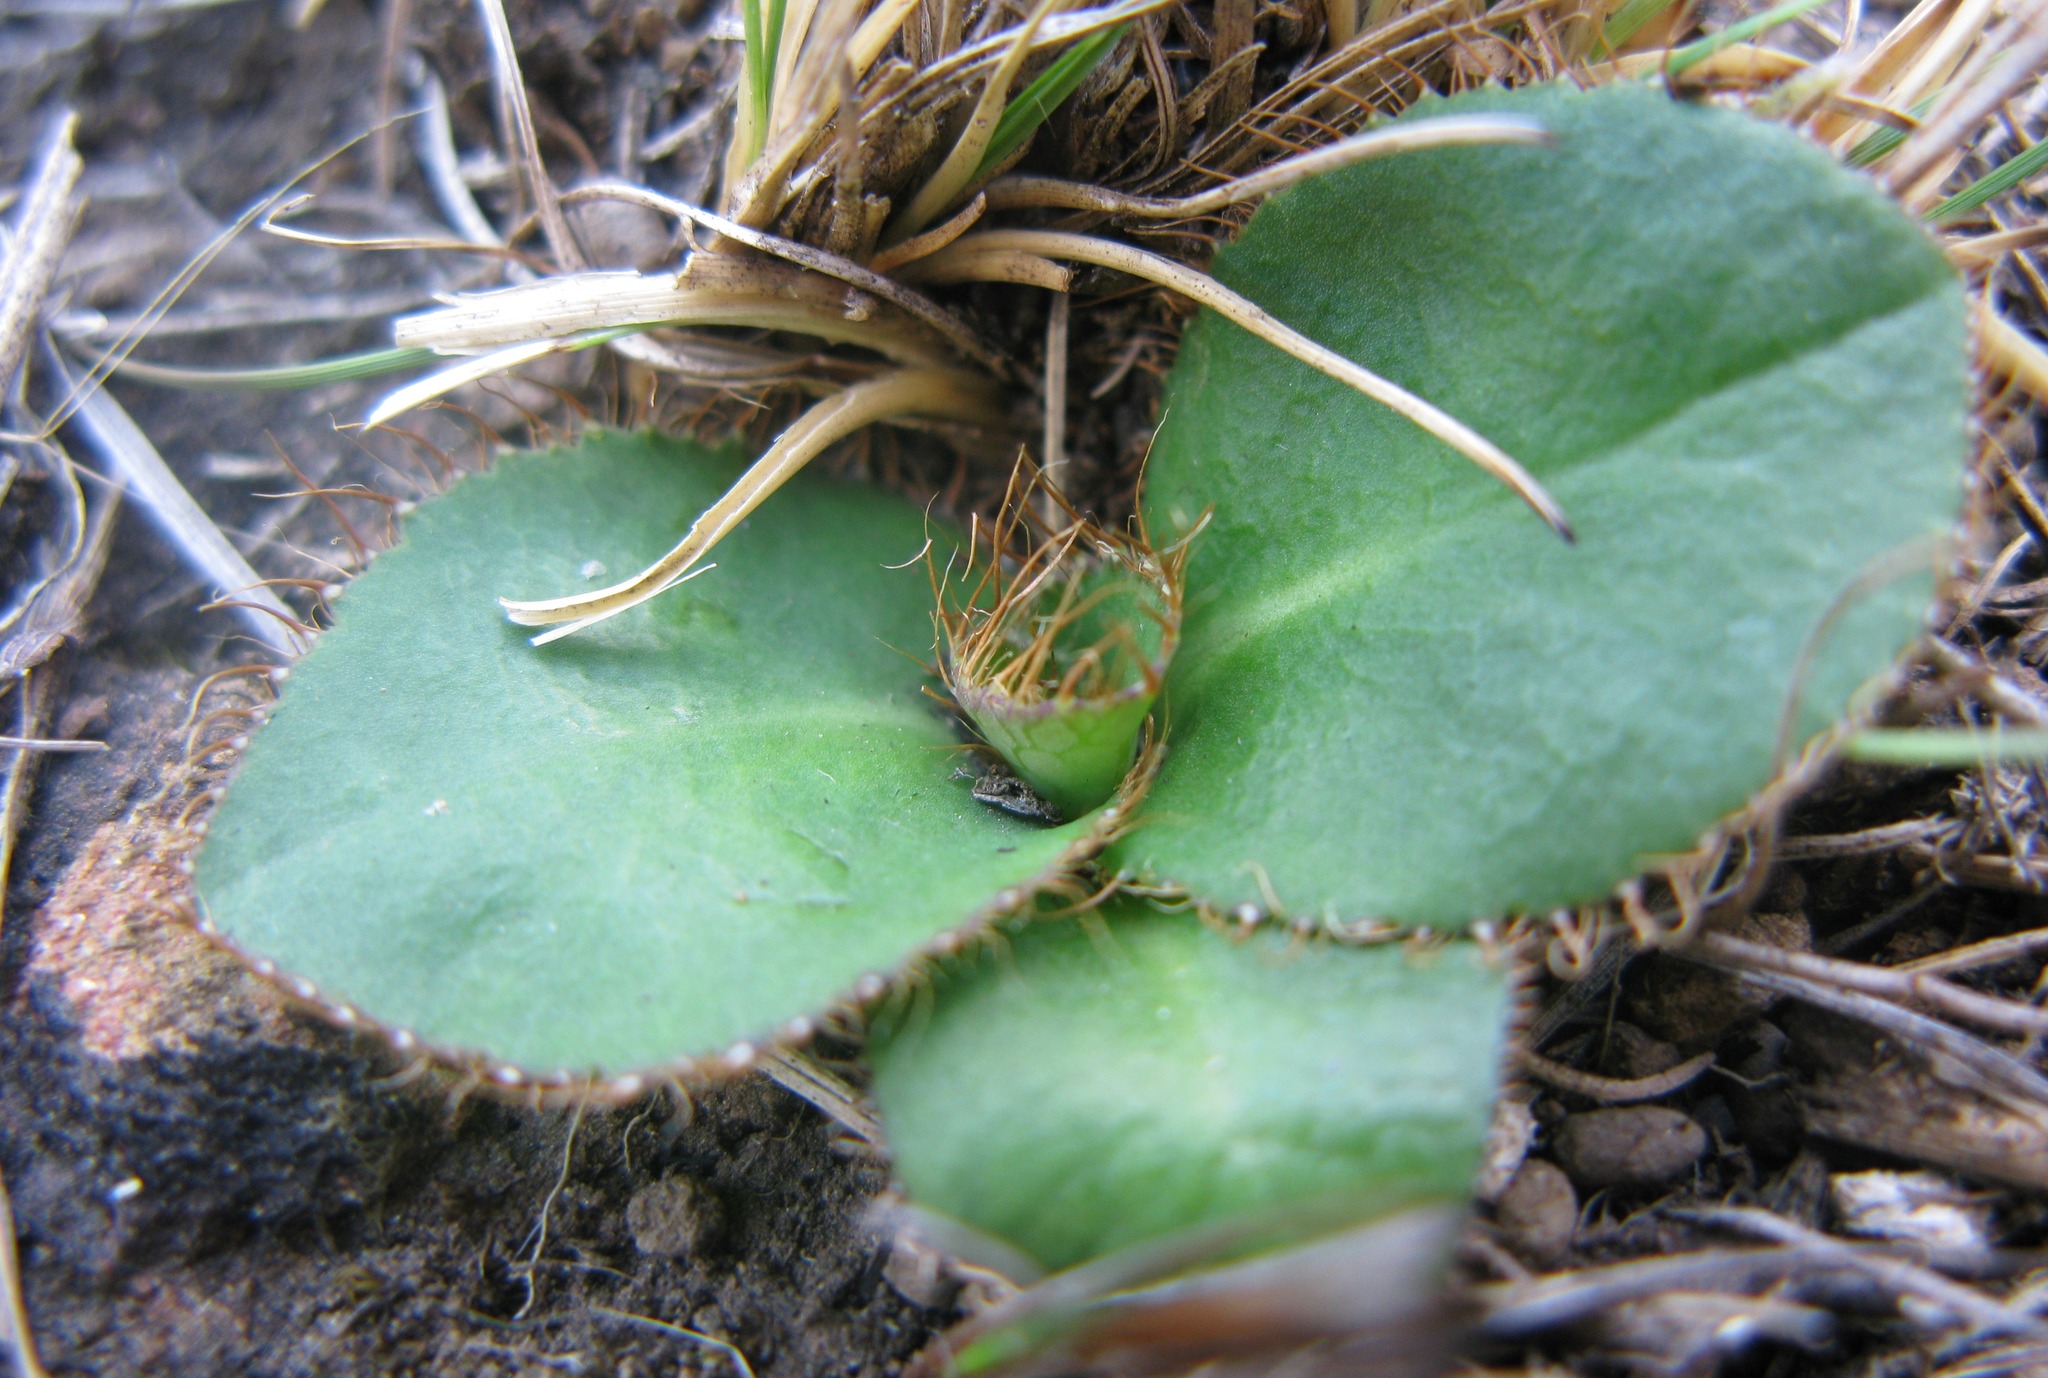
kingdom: Plantae
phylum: Tracheophyta
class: Magnoliopsida
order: Apiales
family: Apiaceae
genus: Alepidea
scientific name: Alepidea natalensis
